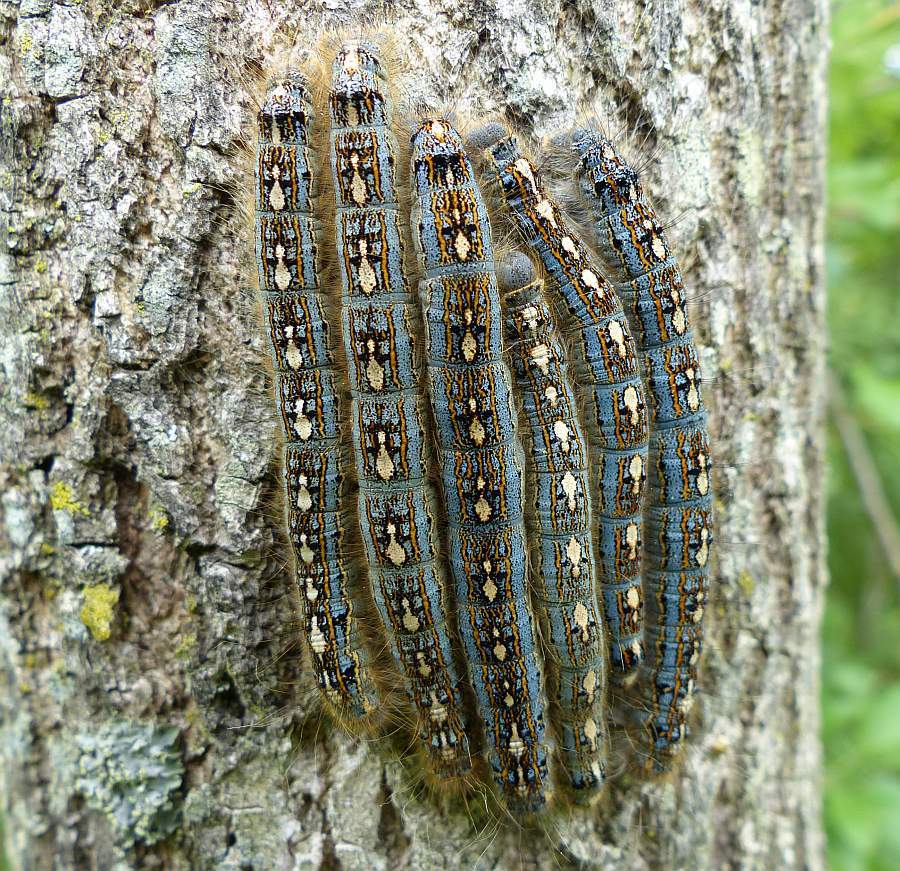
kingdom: Animalia
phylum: Arthropoda
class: Insecta
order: Lepidoptera
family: Lasiocampidae
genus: Malacosoma
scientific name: Malacosoma disstria
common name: Forest tent caterpillar
